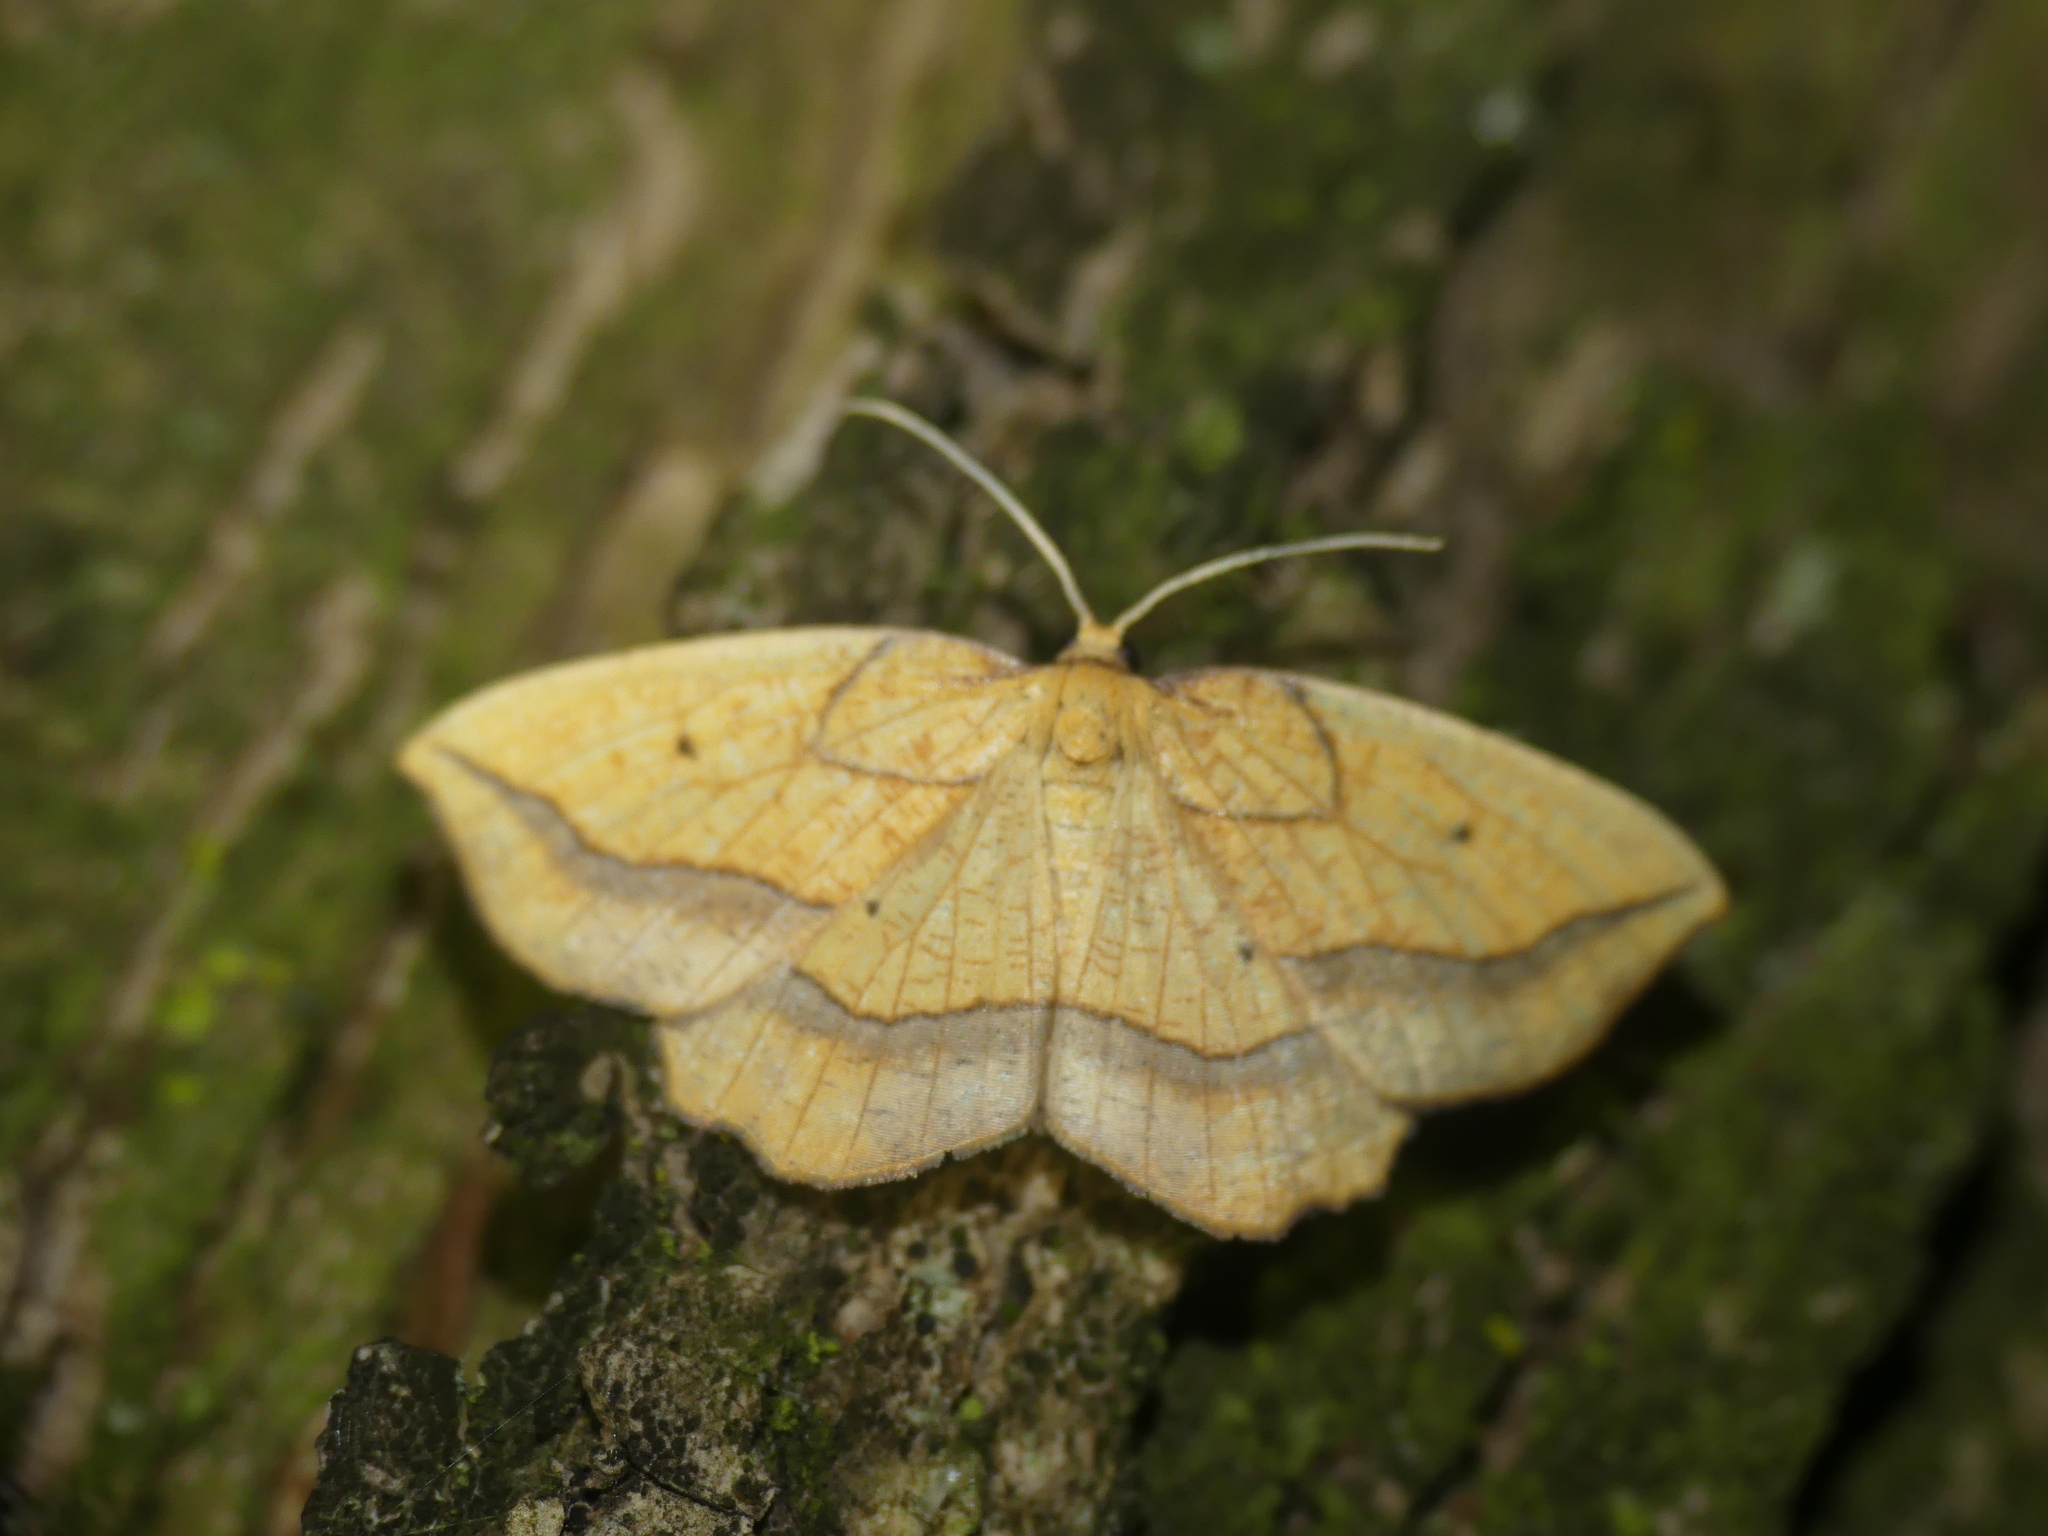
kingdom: Animalia
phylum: Arthropoda
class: Insecta
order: Lepidoptera
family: Geometridae
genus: Epione
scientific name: Epione repandaria
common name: Bordered beauty
